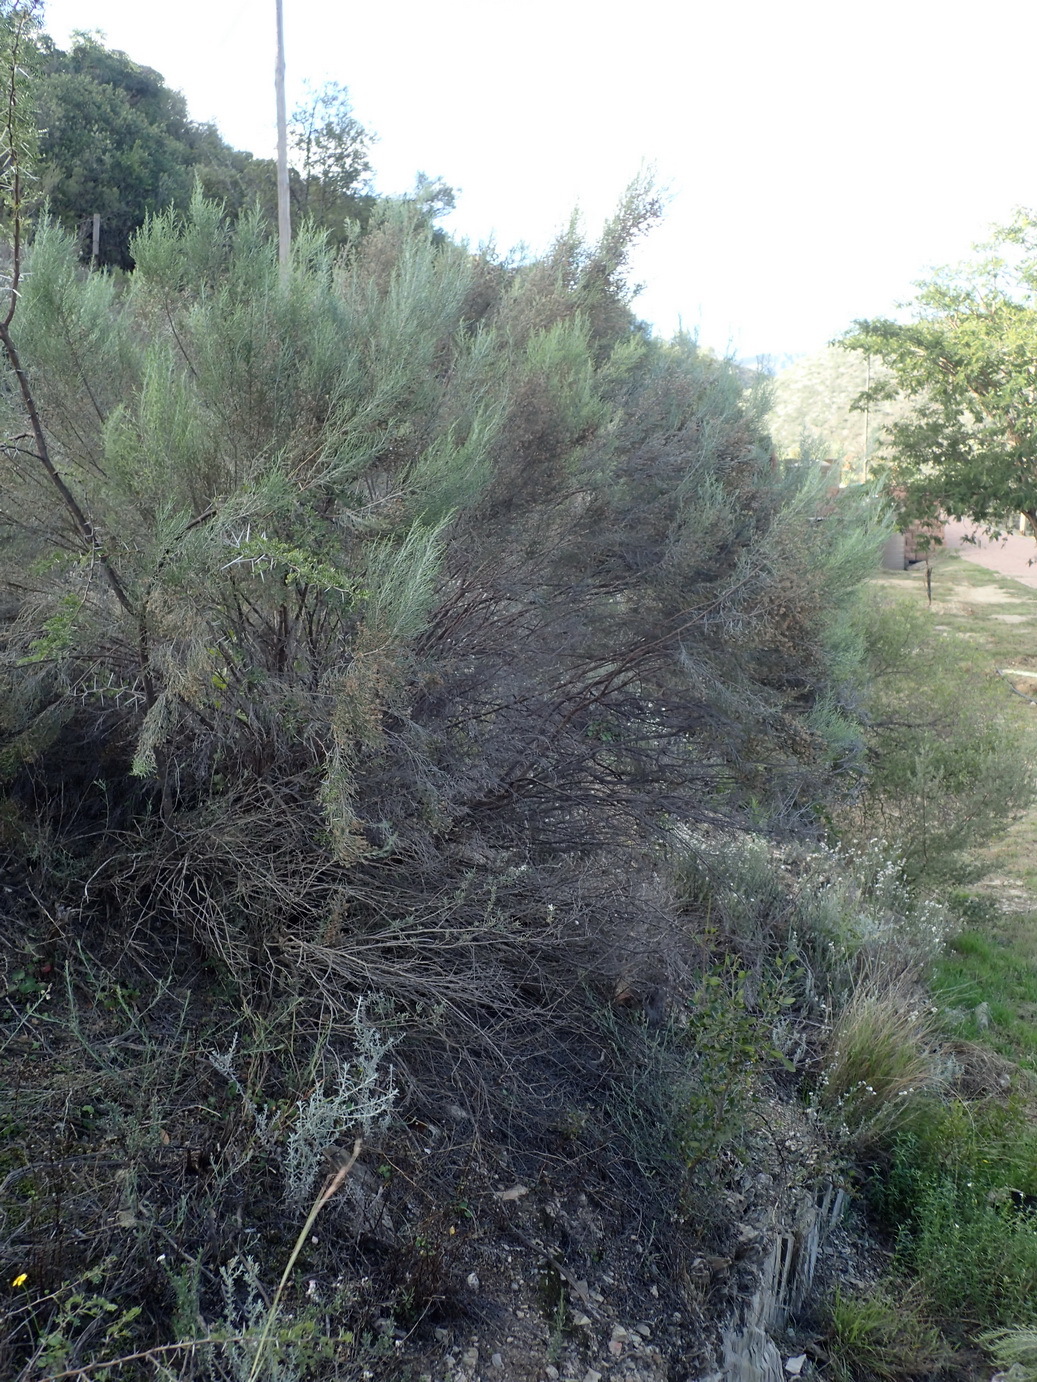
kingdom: Plantae
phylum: Tracheophyta
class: Magnoliopsida
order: Asterales
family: Asteraceae
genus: Dicerothamnus
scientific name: Dicerothamnus rhinocerotis
